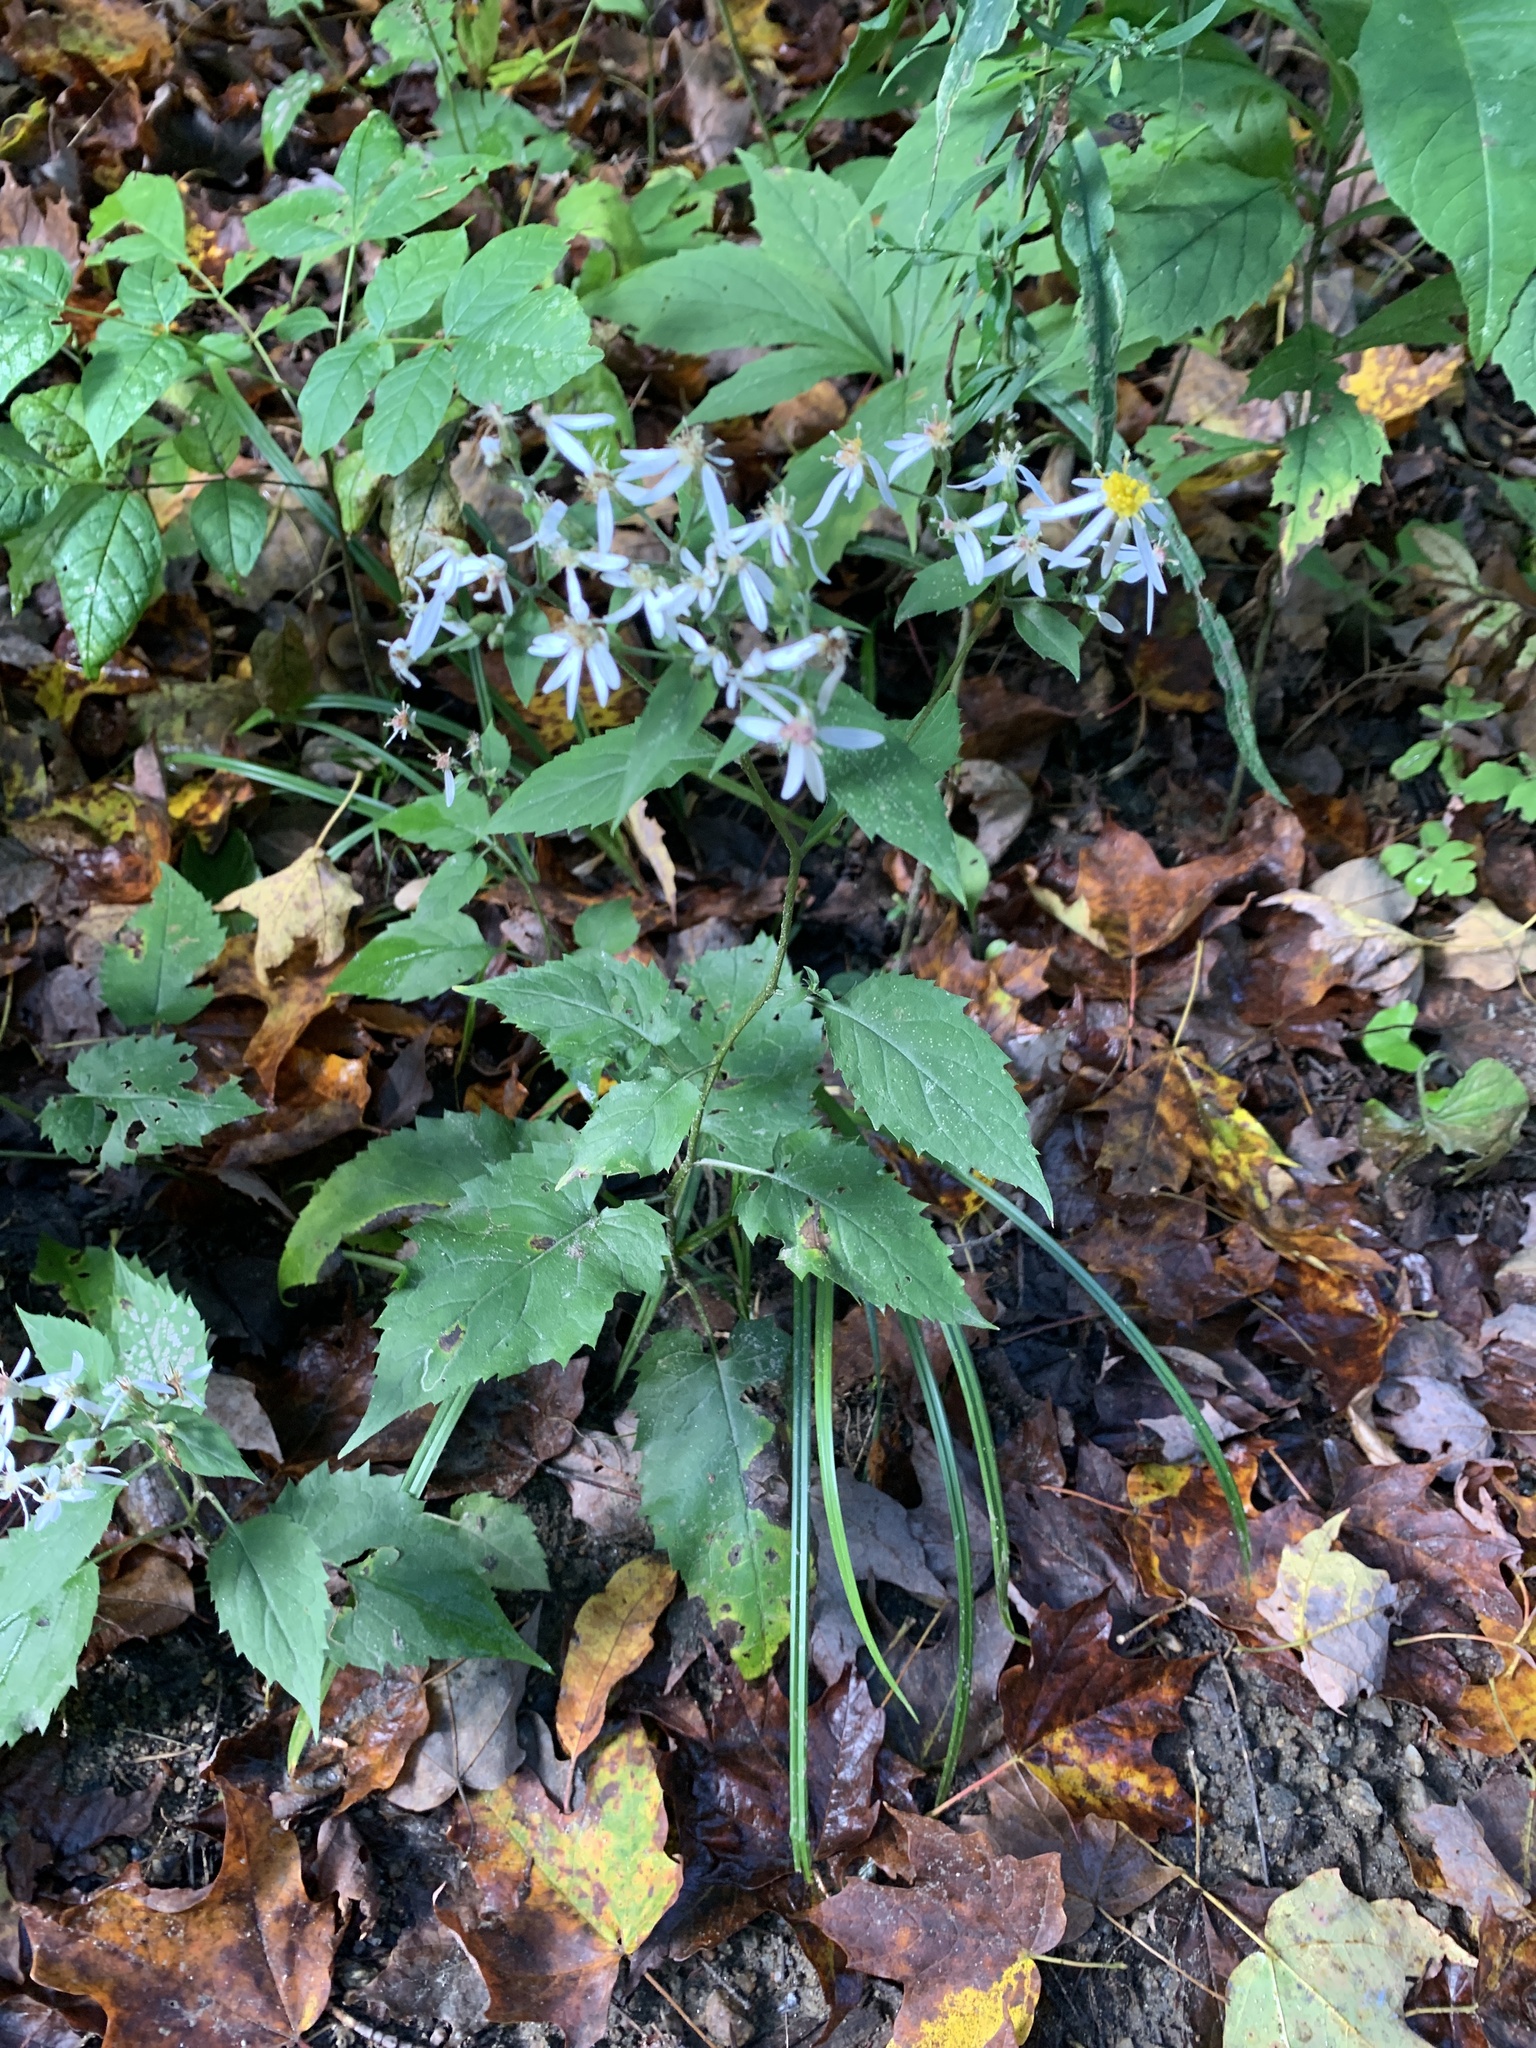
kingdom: Plantae
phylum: Tracheophyta
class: Magnoliopsida
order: Asterales
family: Asteraceae
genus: Eurybia
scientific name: Eurybia divaricata
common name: White wood aster
